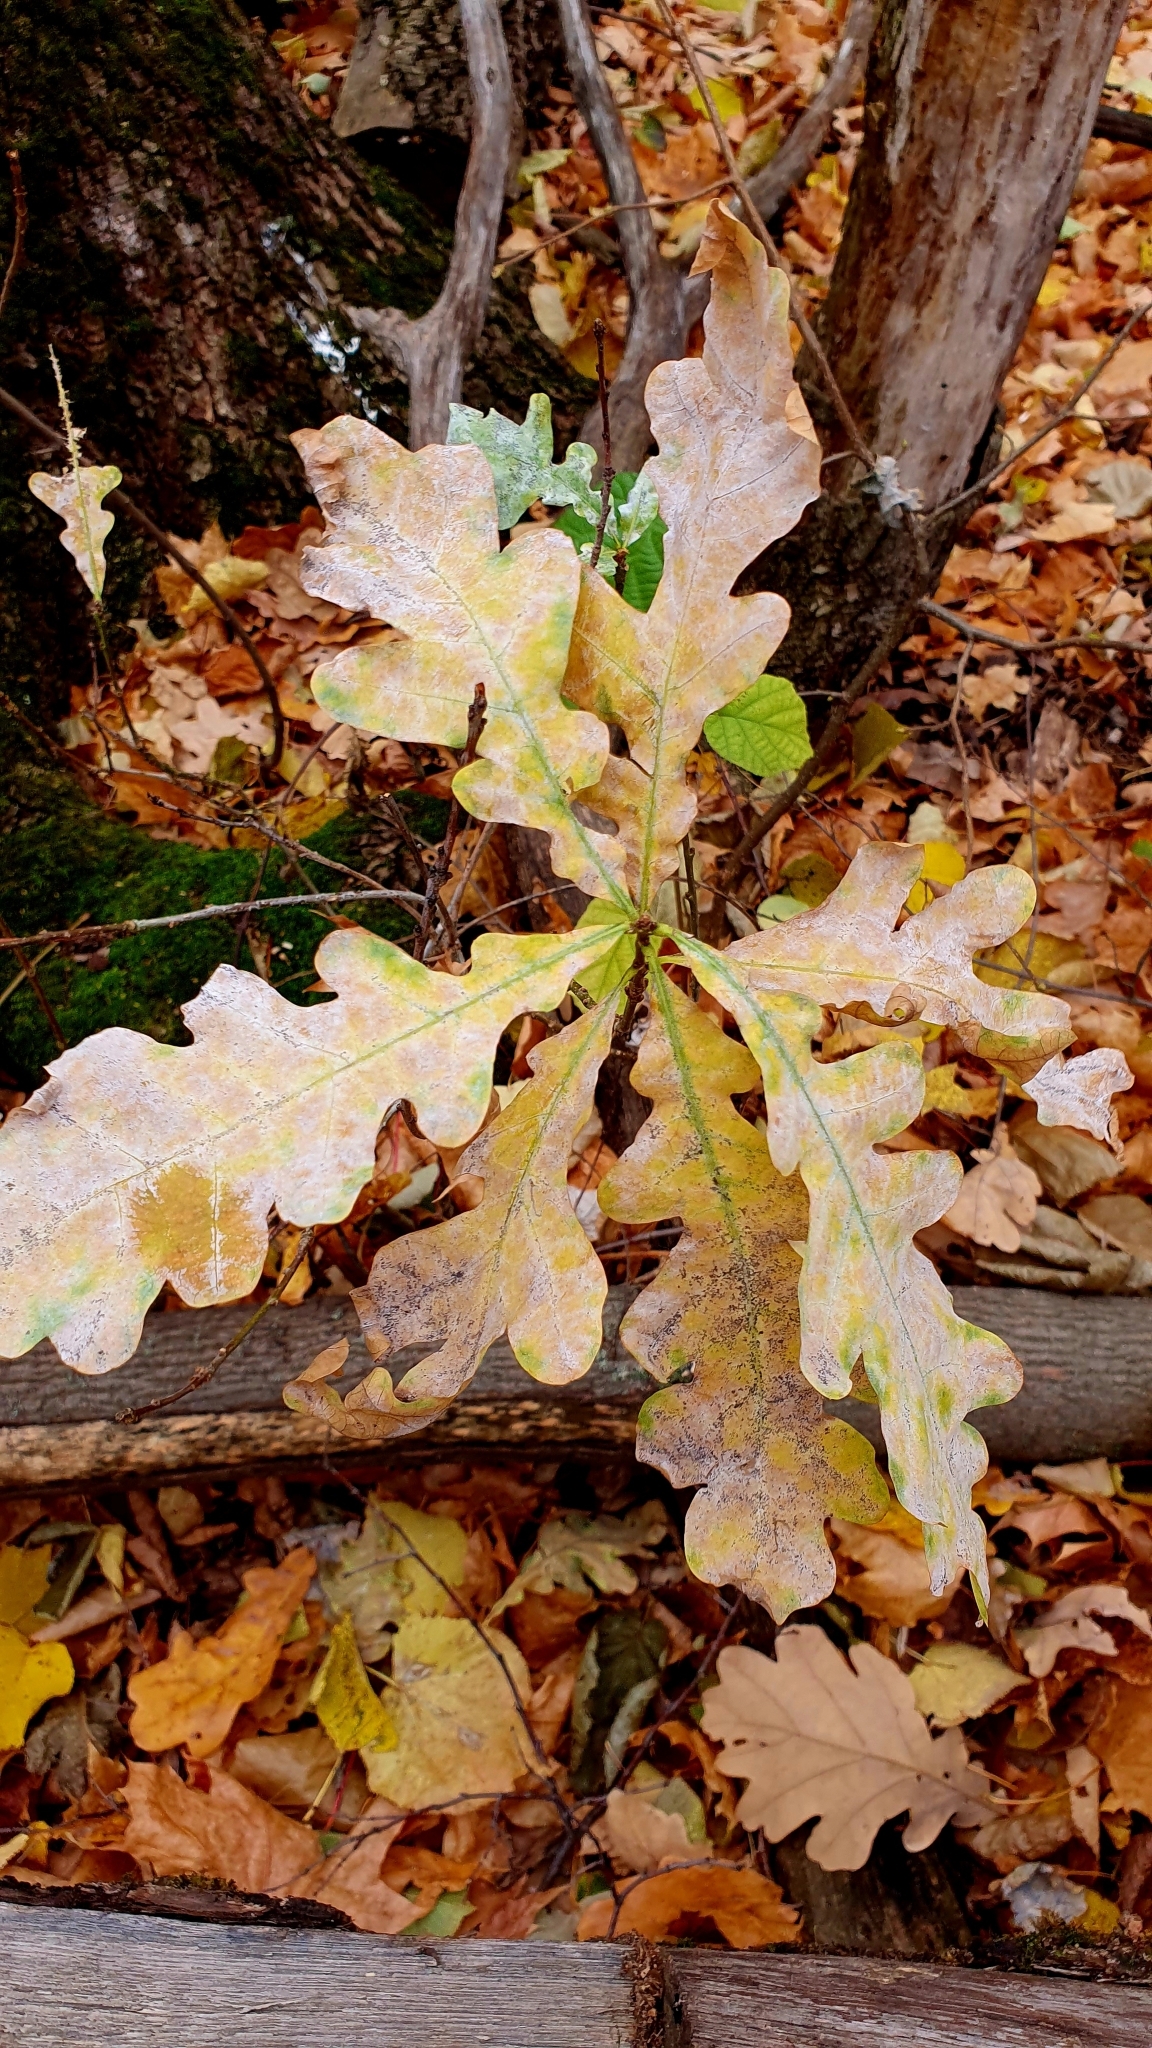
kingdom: Plantae
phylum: Tracheophyta
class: Magnoliopsida
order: Fagales
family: Fagaceae
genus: Quercus
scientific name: Quercus robur
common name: Pedunculate oak
